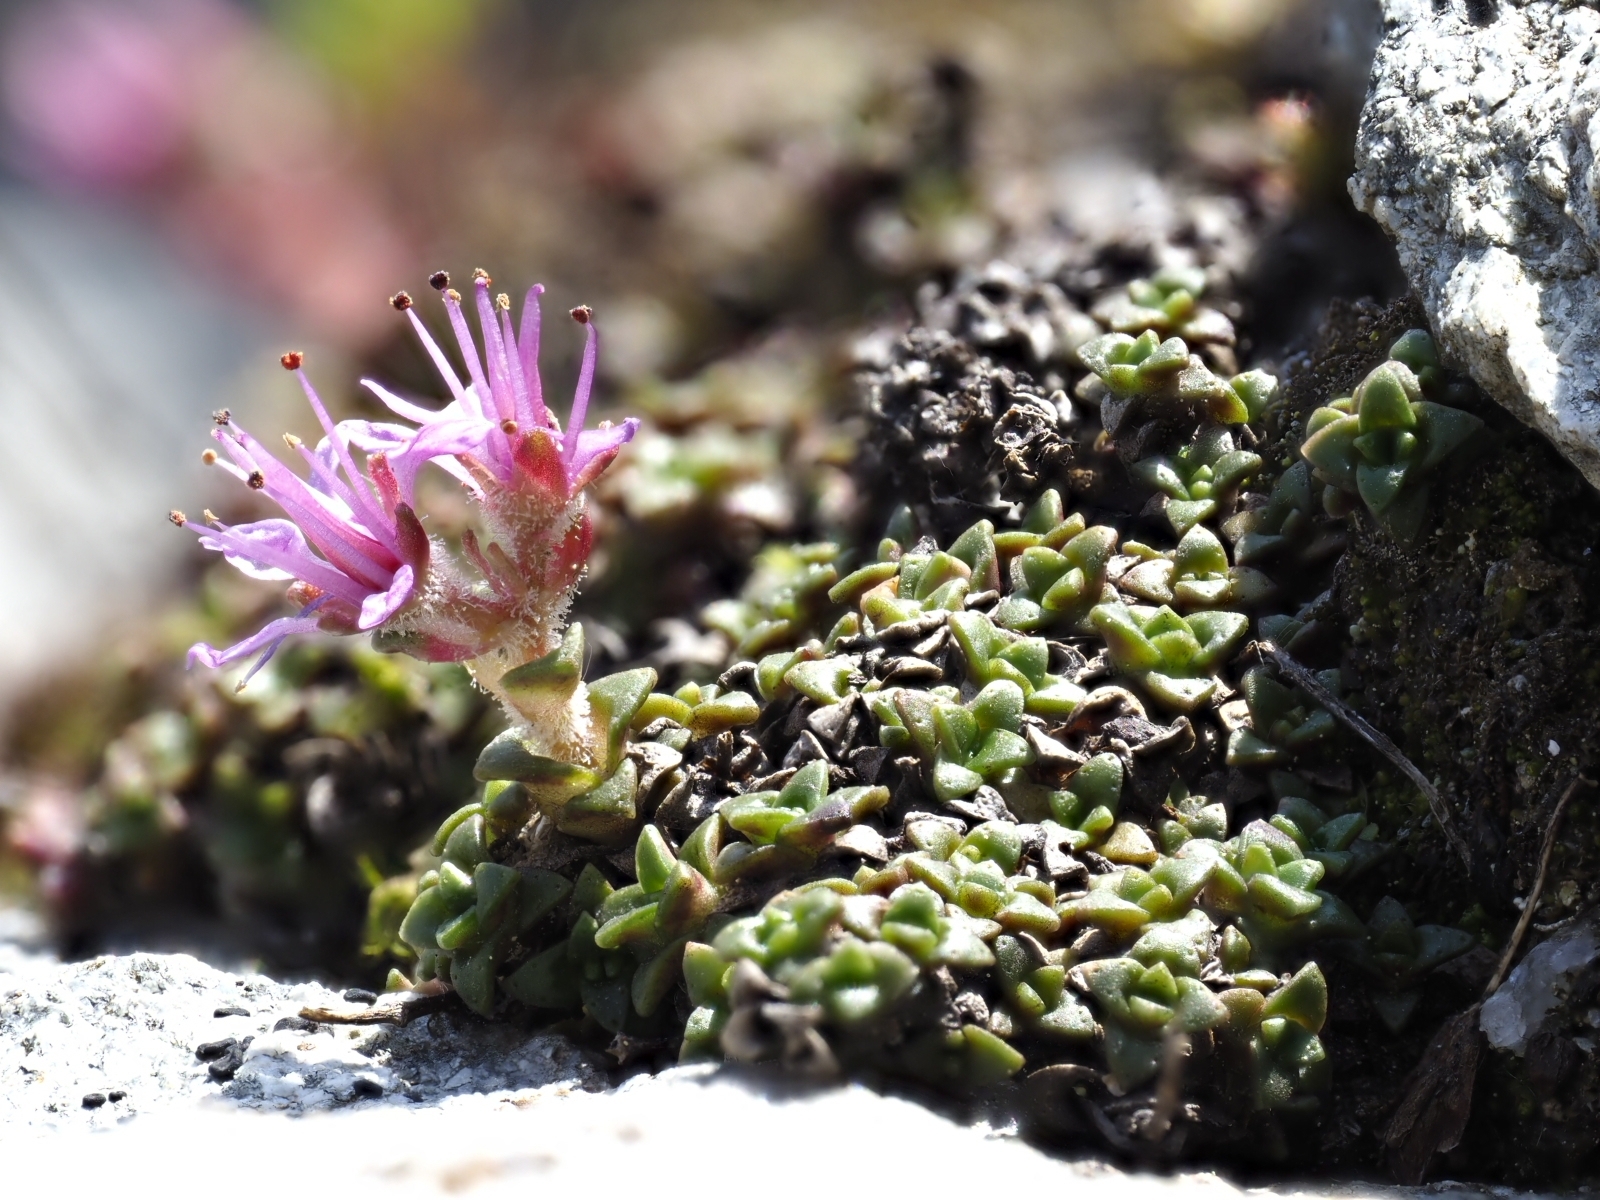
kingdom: Plantae
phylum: Tracheophyta
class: Magnoliopsida
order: Saxifragales
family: Saxifragaceae
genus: Saxifraga
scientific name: Saxifraga retusa
